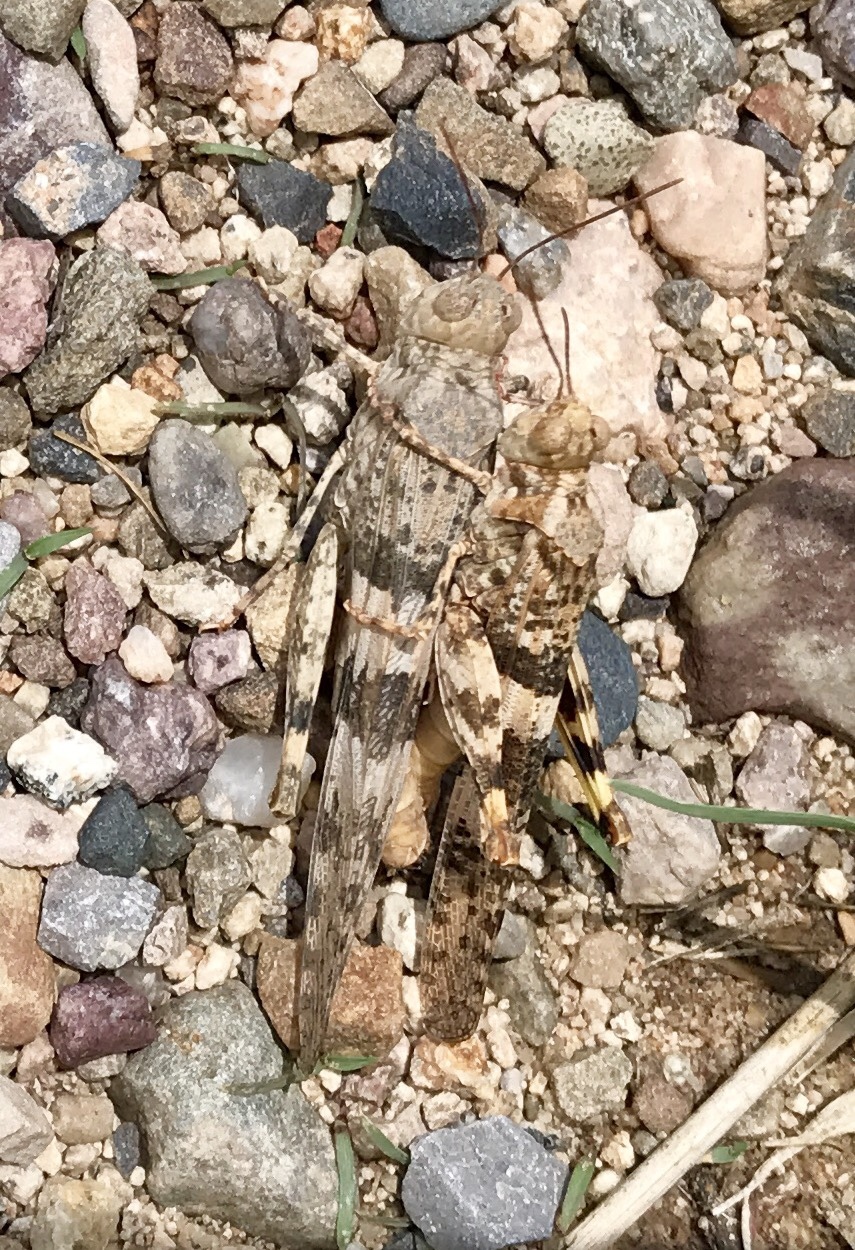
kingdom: Animalia
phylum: Arthropoda
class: Insecta
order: Orthoptera
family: Acrididae
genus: Trimerotropis
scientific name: Trimerotropis pallidipennis
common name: Pallid-winged grasshopper
